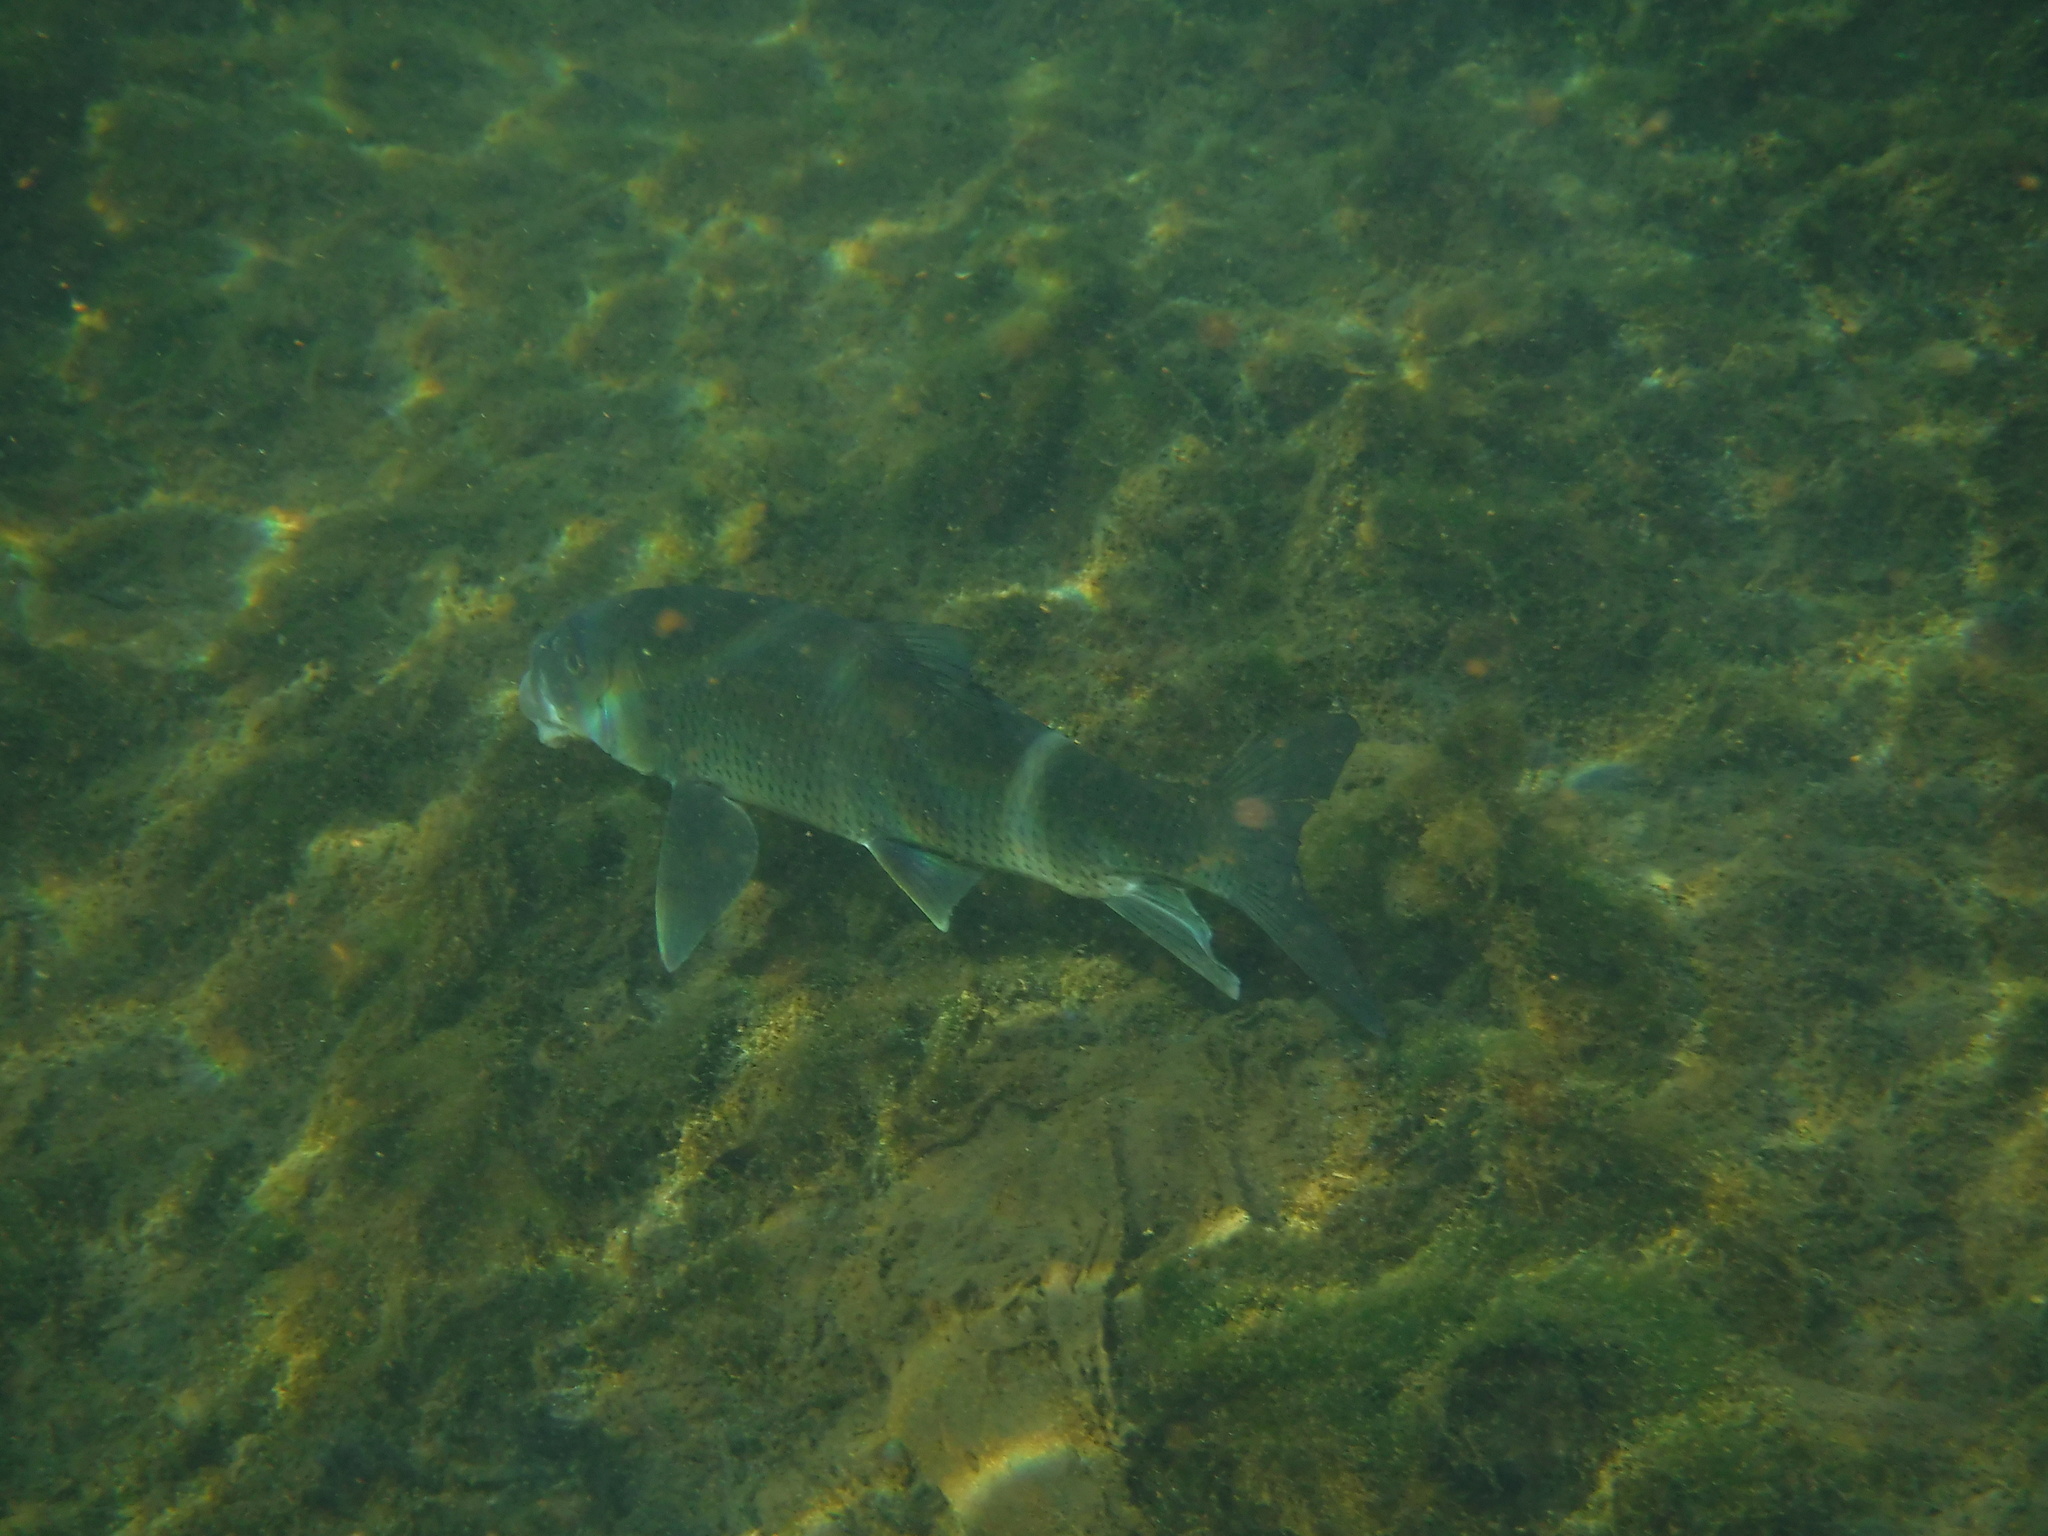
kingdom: Animalia
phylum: Chordata
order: Cypriniformes
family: Catostomidae
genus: Minytrema
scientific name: Minytrema melanops
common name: Spotted sucker
